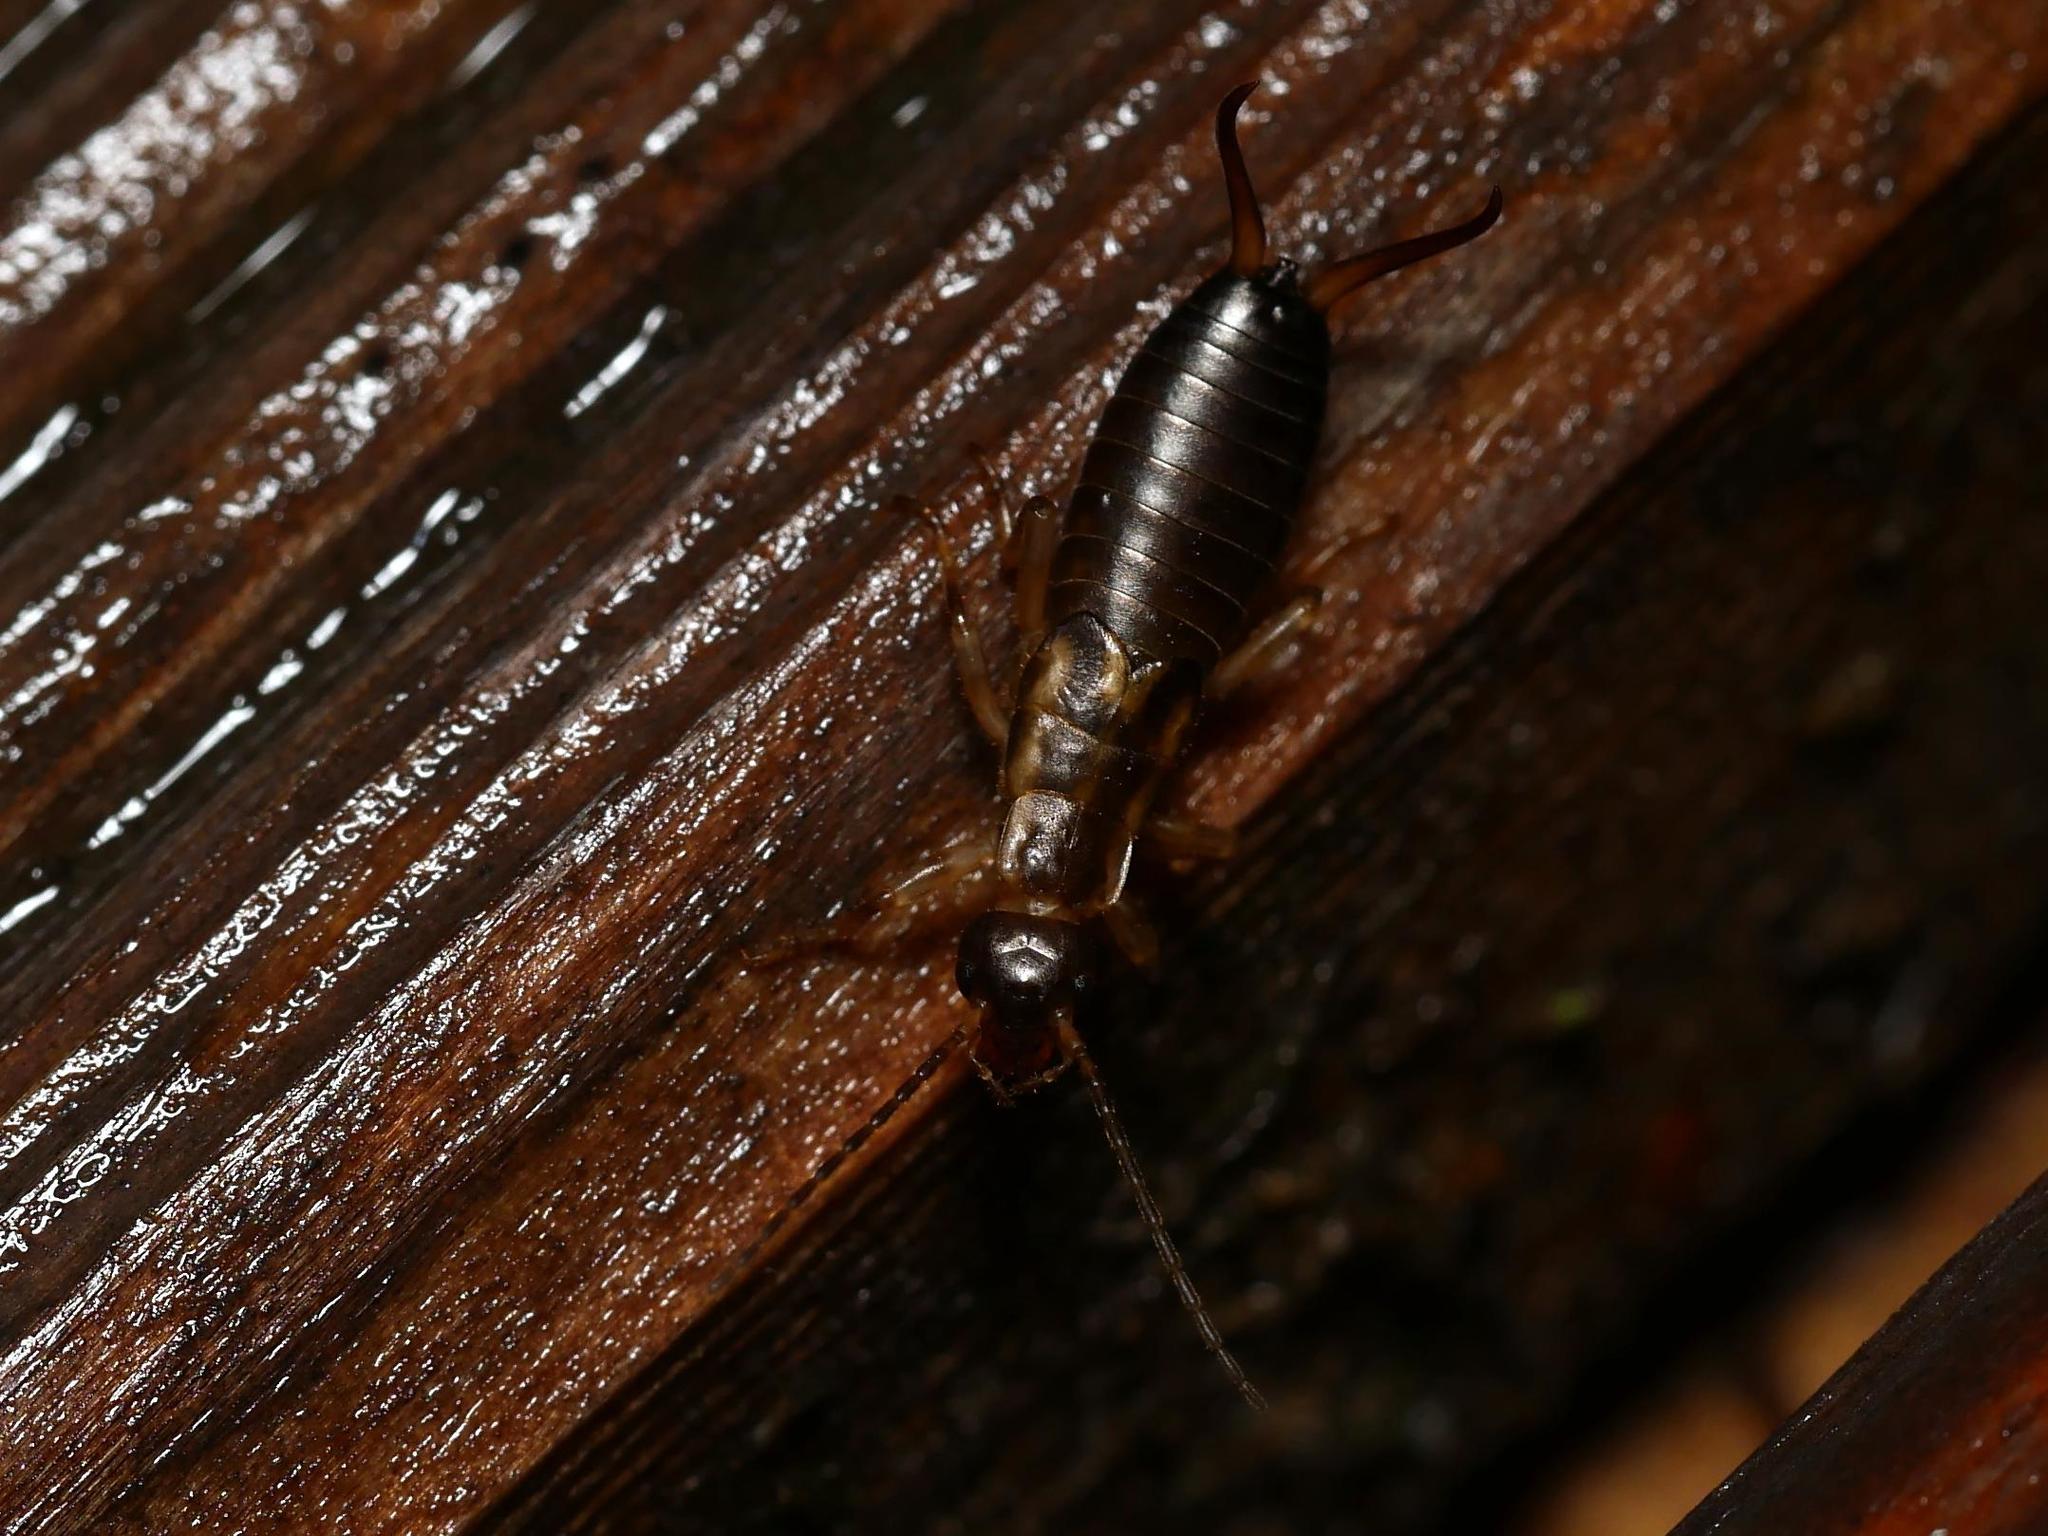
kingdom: Animalia
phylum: Arthropoda
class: Insecta
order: Dermaptera
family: Forficulidae
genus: Forficula
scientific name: Forficula
